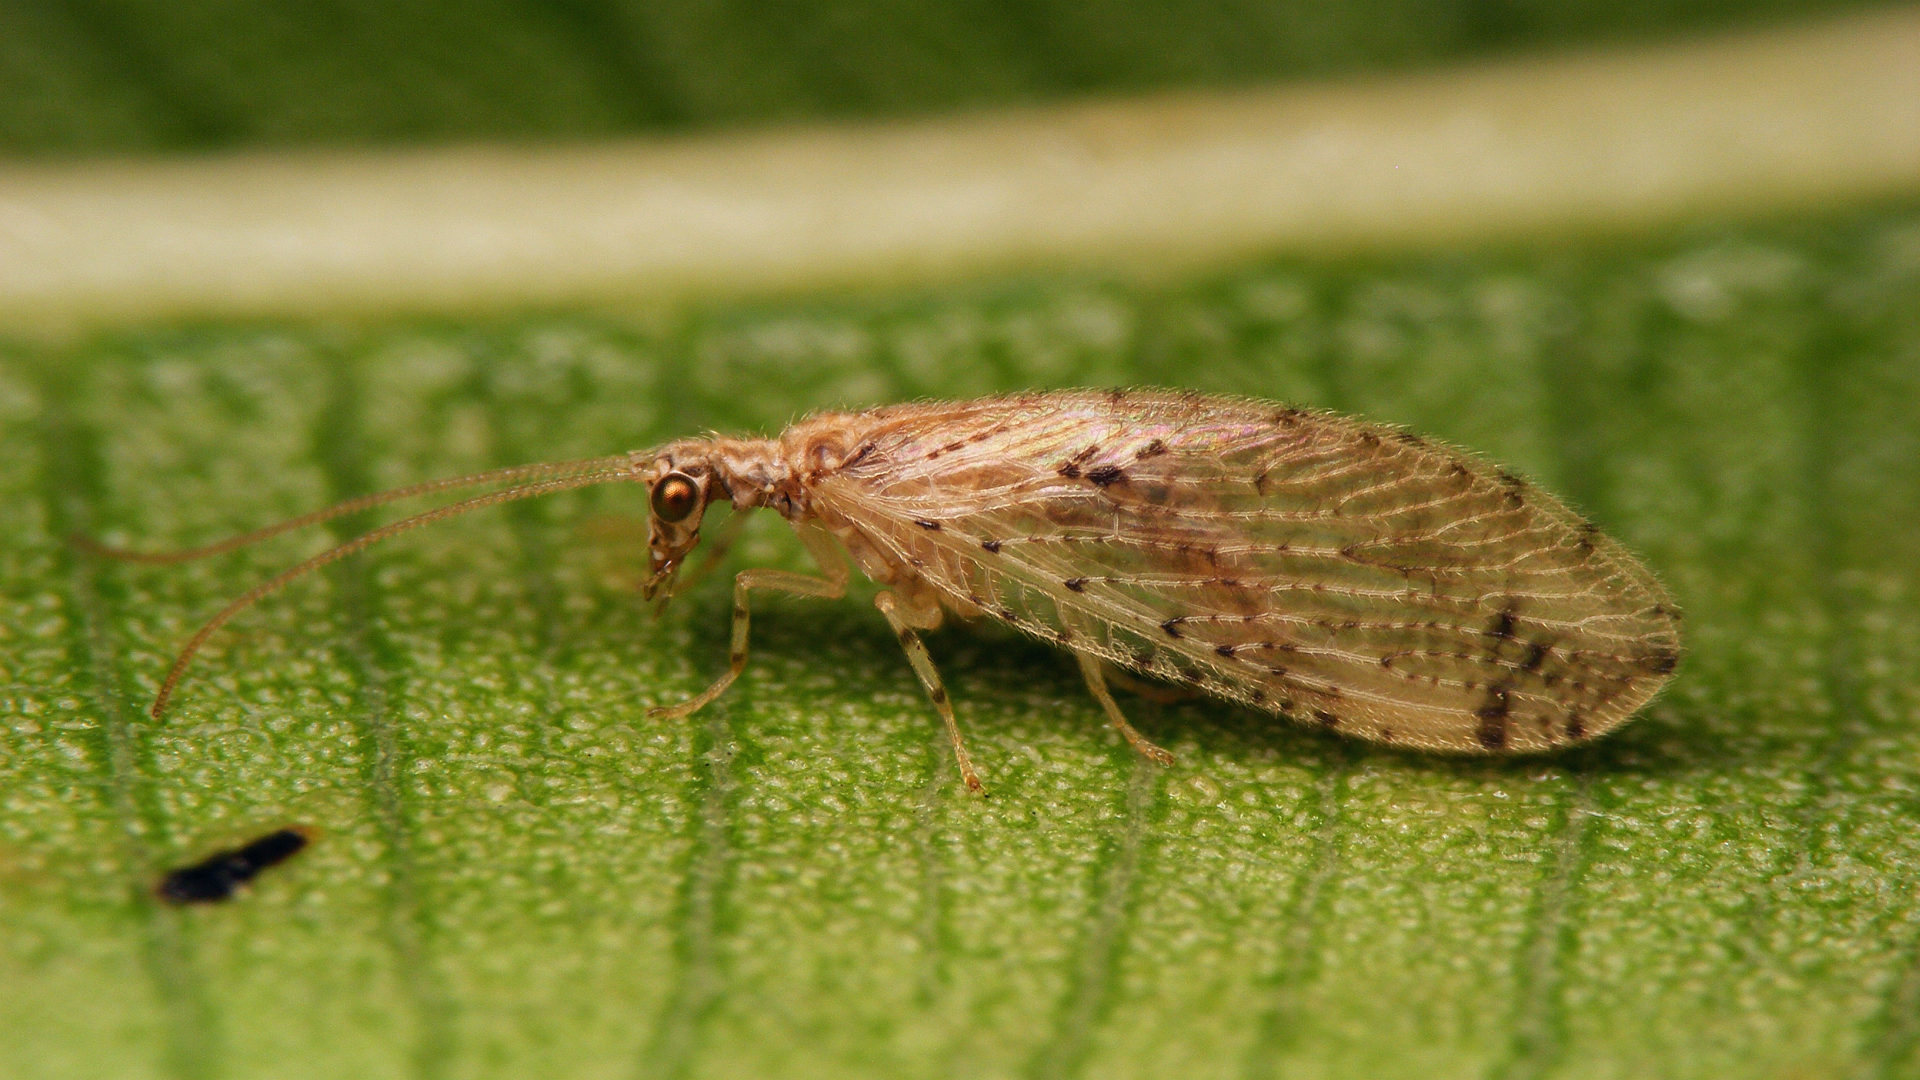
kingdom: Animalia
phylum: Arthropoda
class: Insecta
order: Neuroptera
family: Hemerobiidae
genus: Micromus
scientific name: Micromus canariensis
